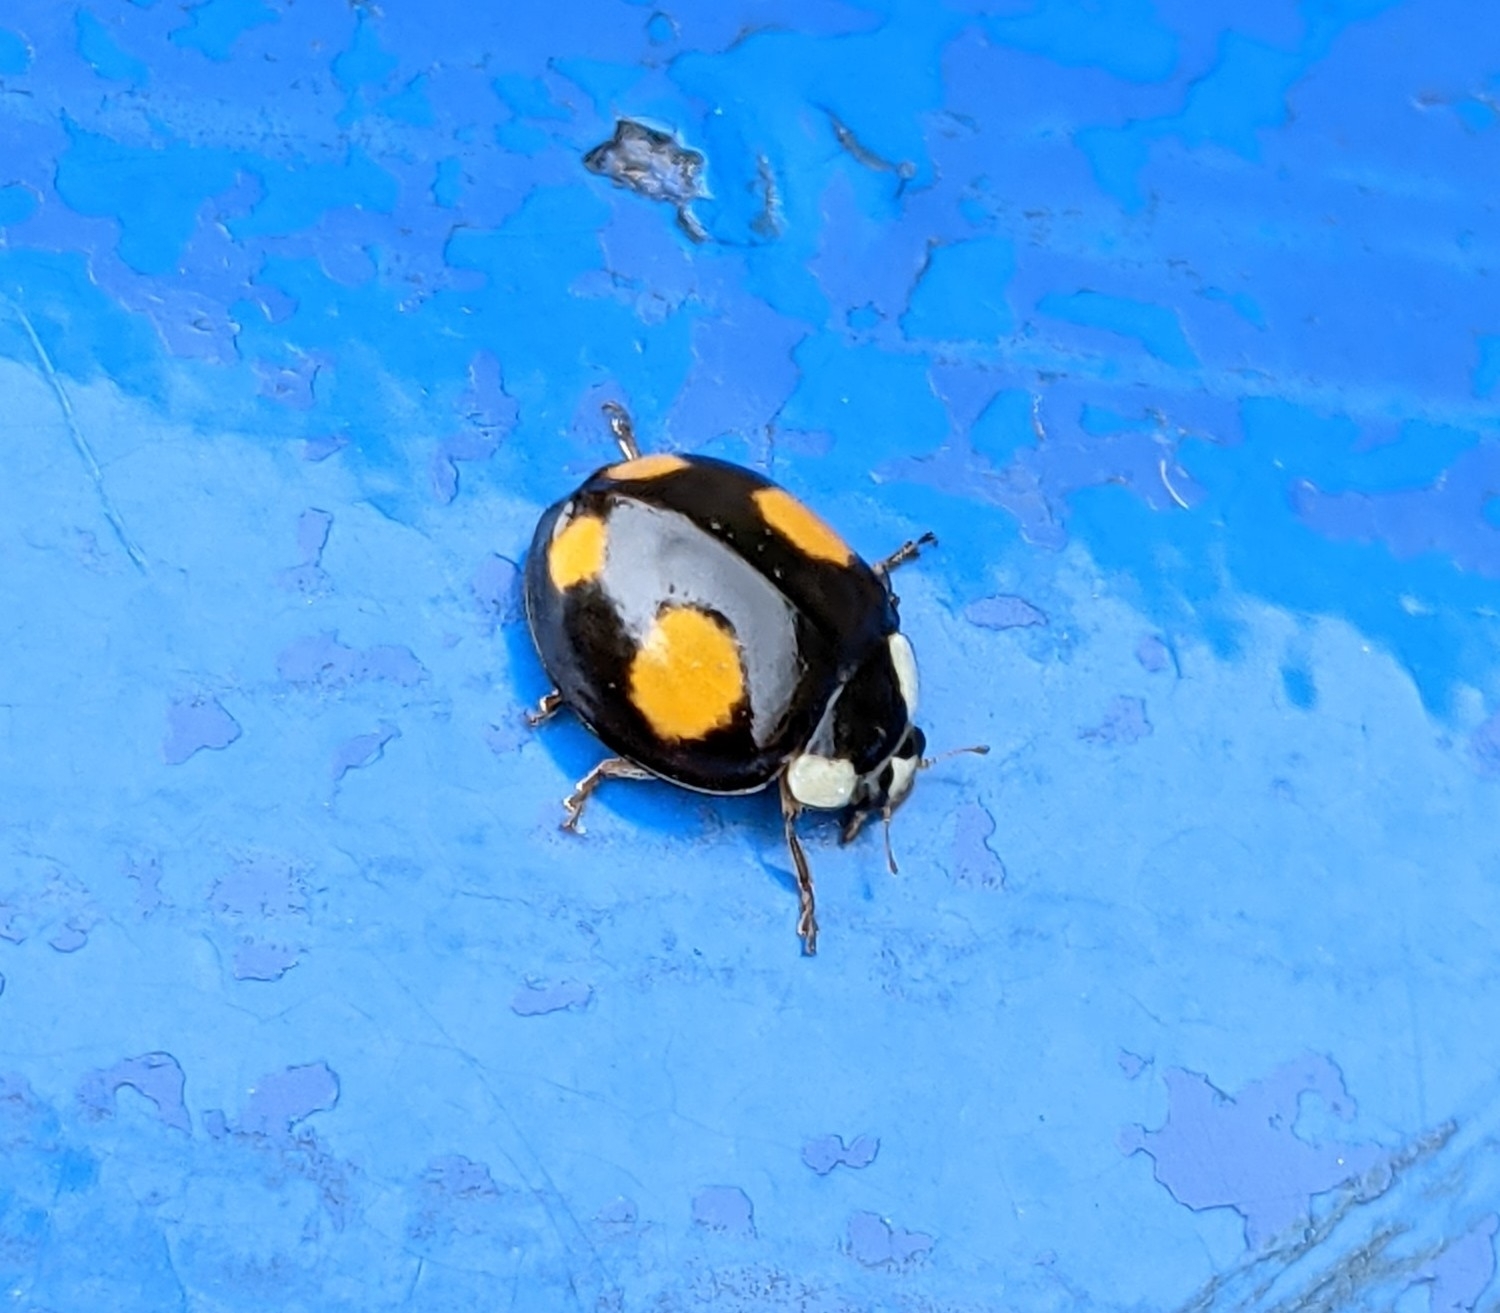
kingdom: Animalia
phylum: Arthropoda
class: Insecta
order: Coleoptera
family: Coccinellidae
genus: Harmonia
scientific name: Harmonia axyridis
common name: Harlequin ladybird
